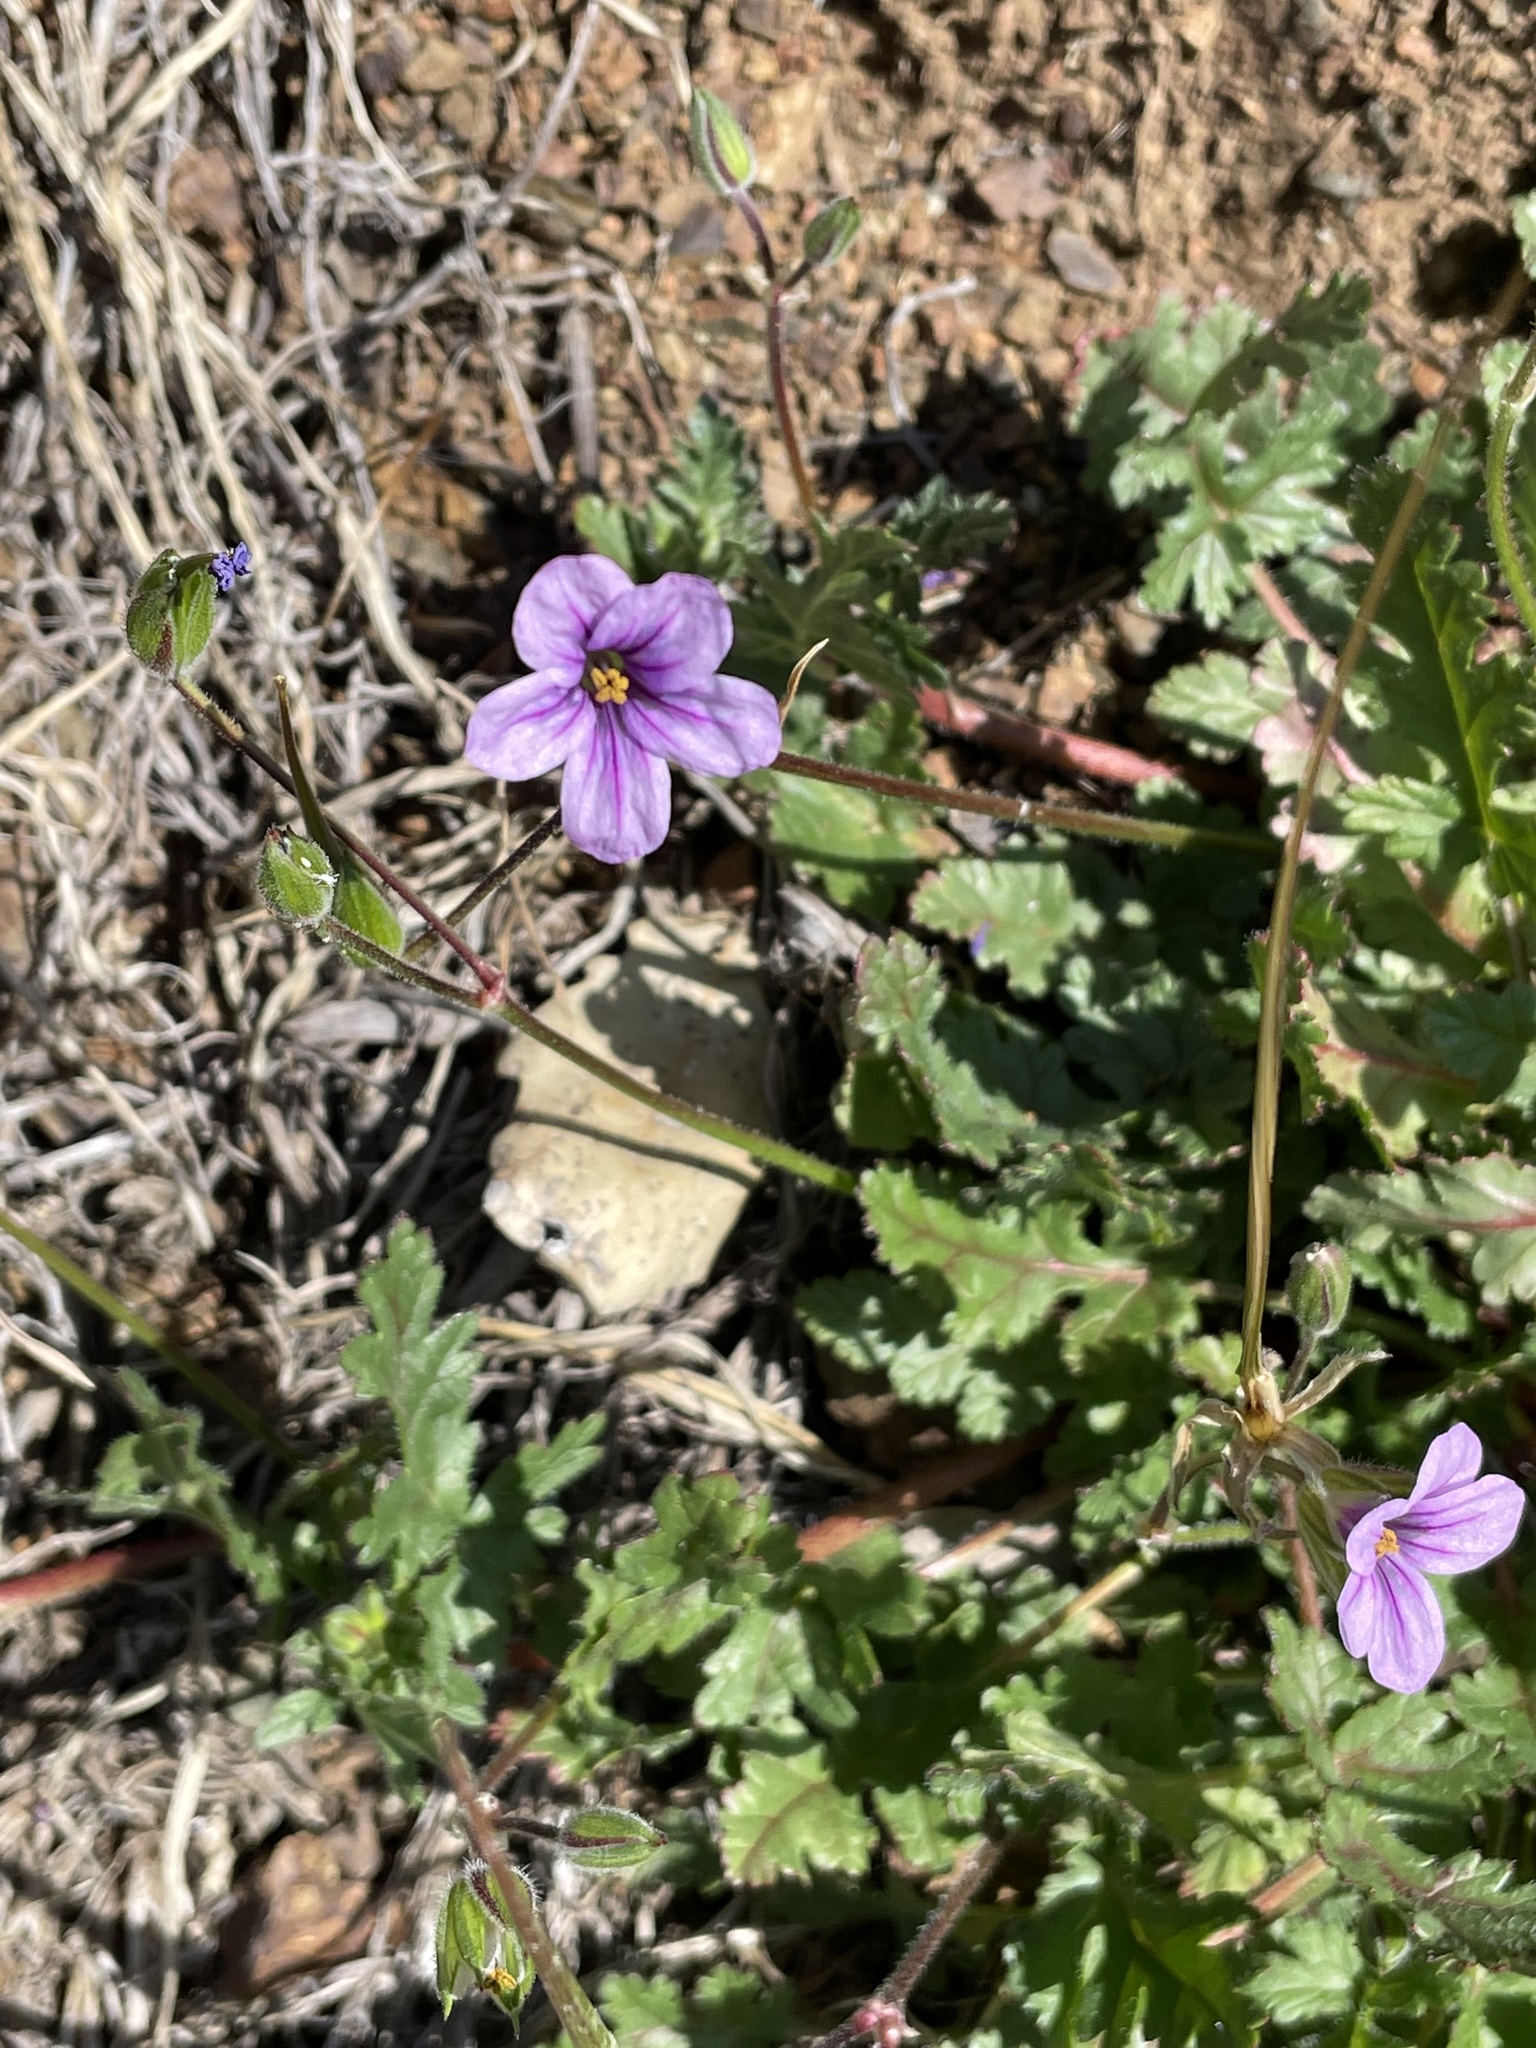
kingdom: Plantae
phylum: Tracheophyta
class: Magnoliopsida
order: Geraniales
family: Geraniaceae
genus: Erodium
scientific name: Erodium botrys
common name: Mediterranean stork's-bill
